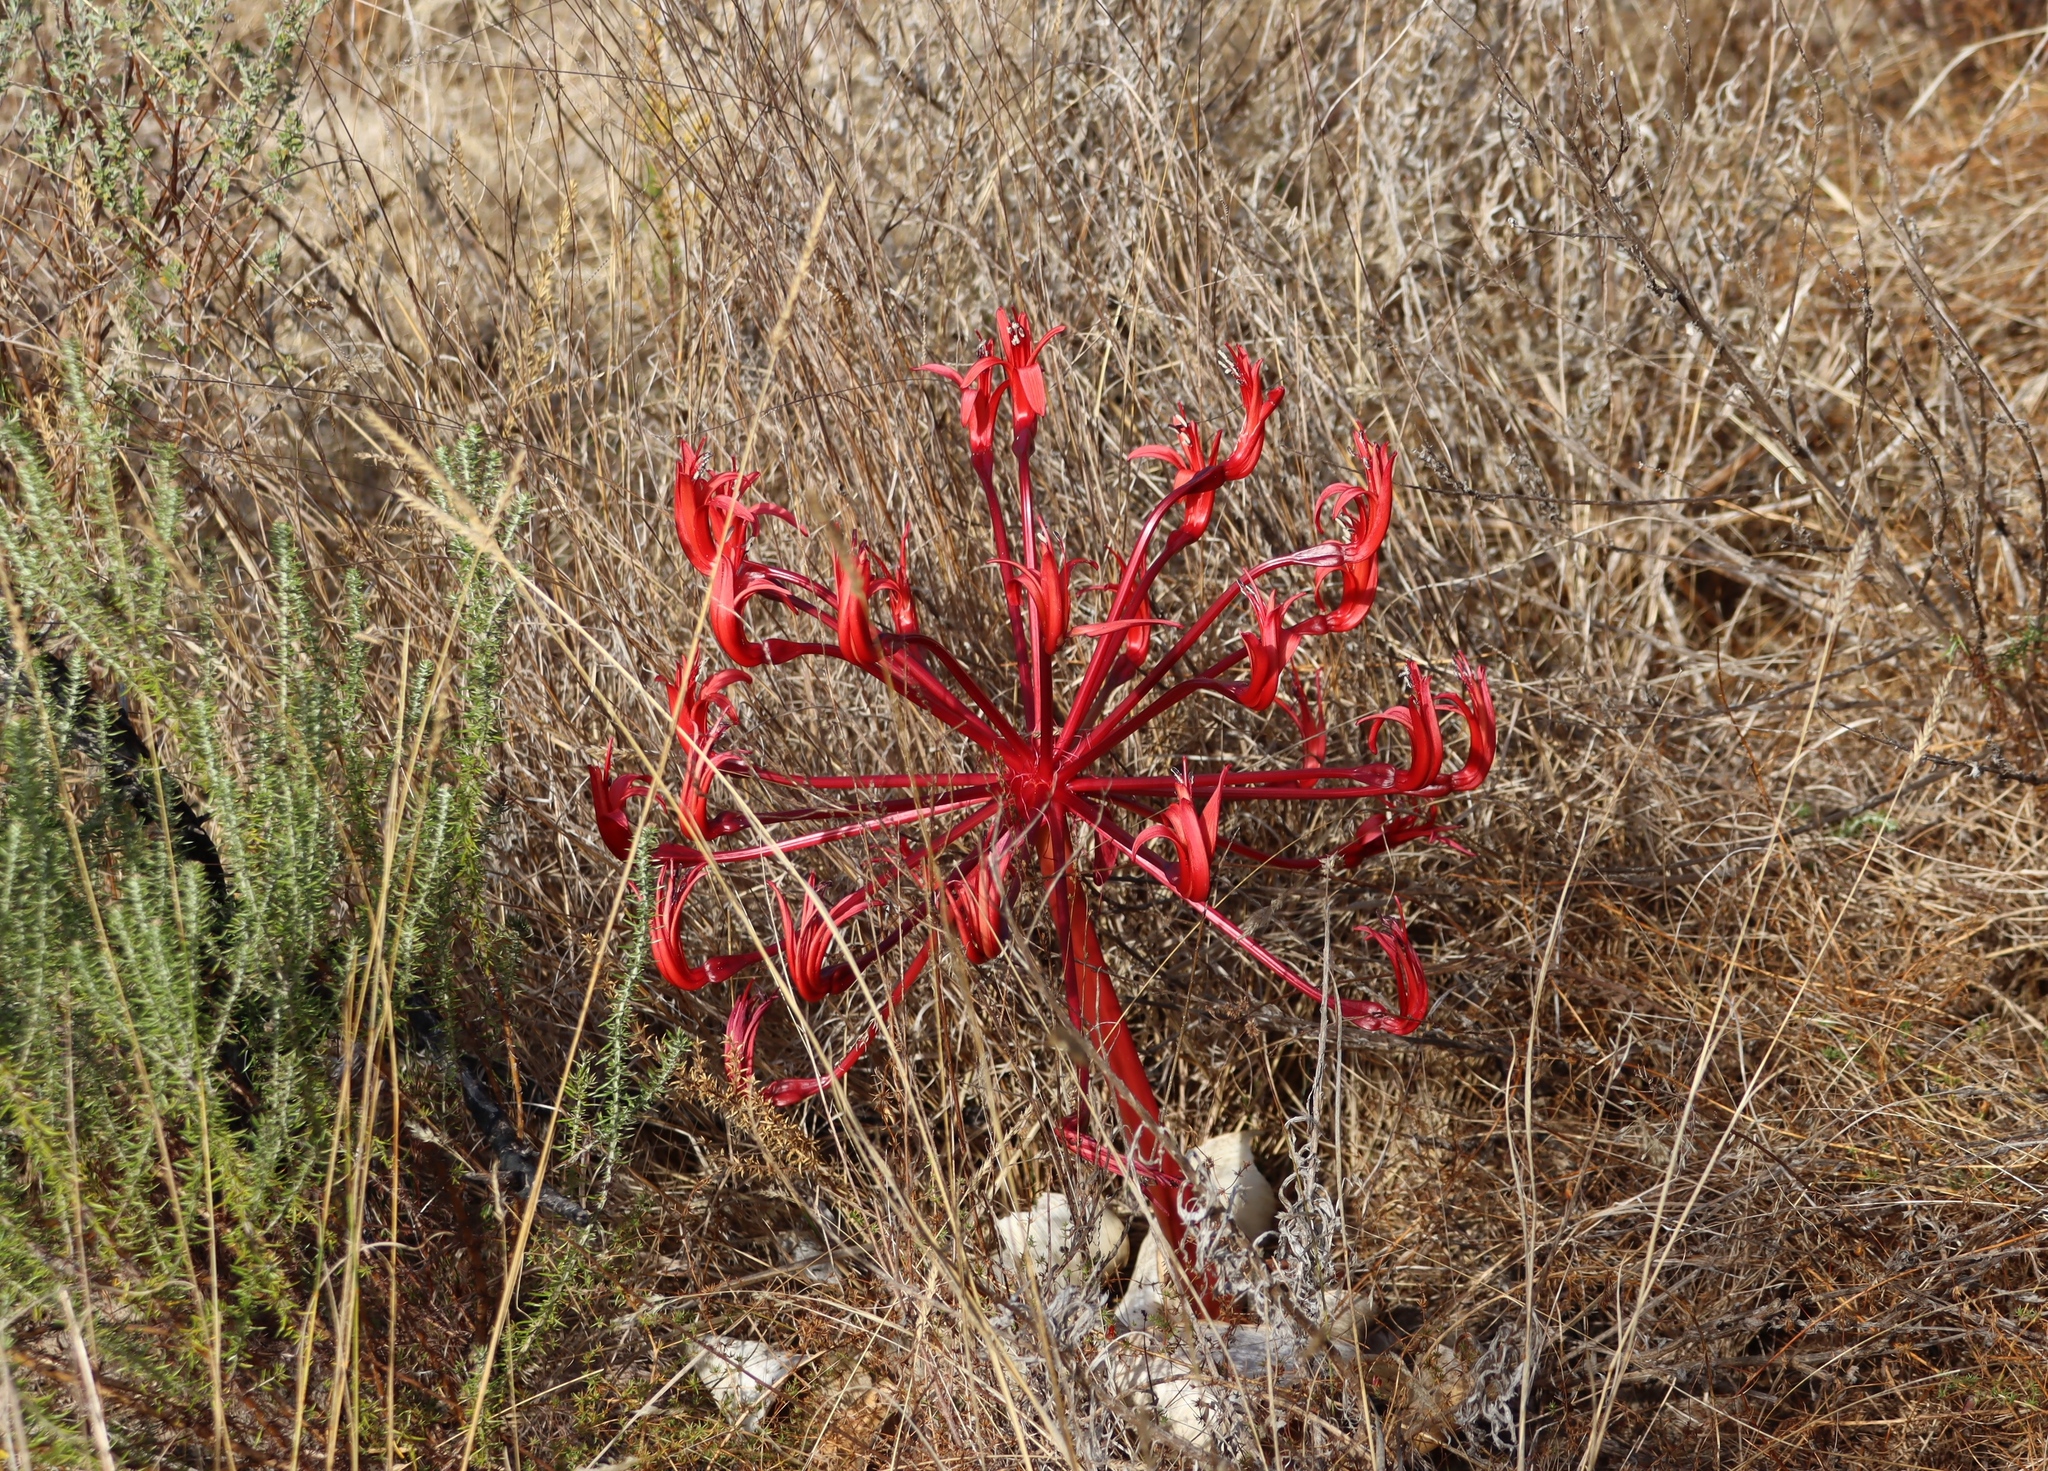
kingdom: Plantae
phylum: Tracheophyta
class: Liliopsida
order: Asparagales
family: Amaryllidaceae
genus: Brunsvigia
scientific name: Brunsvigia orientalis
